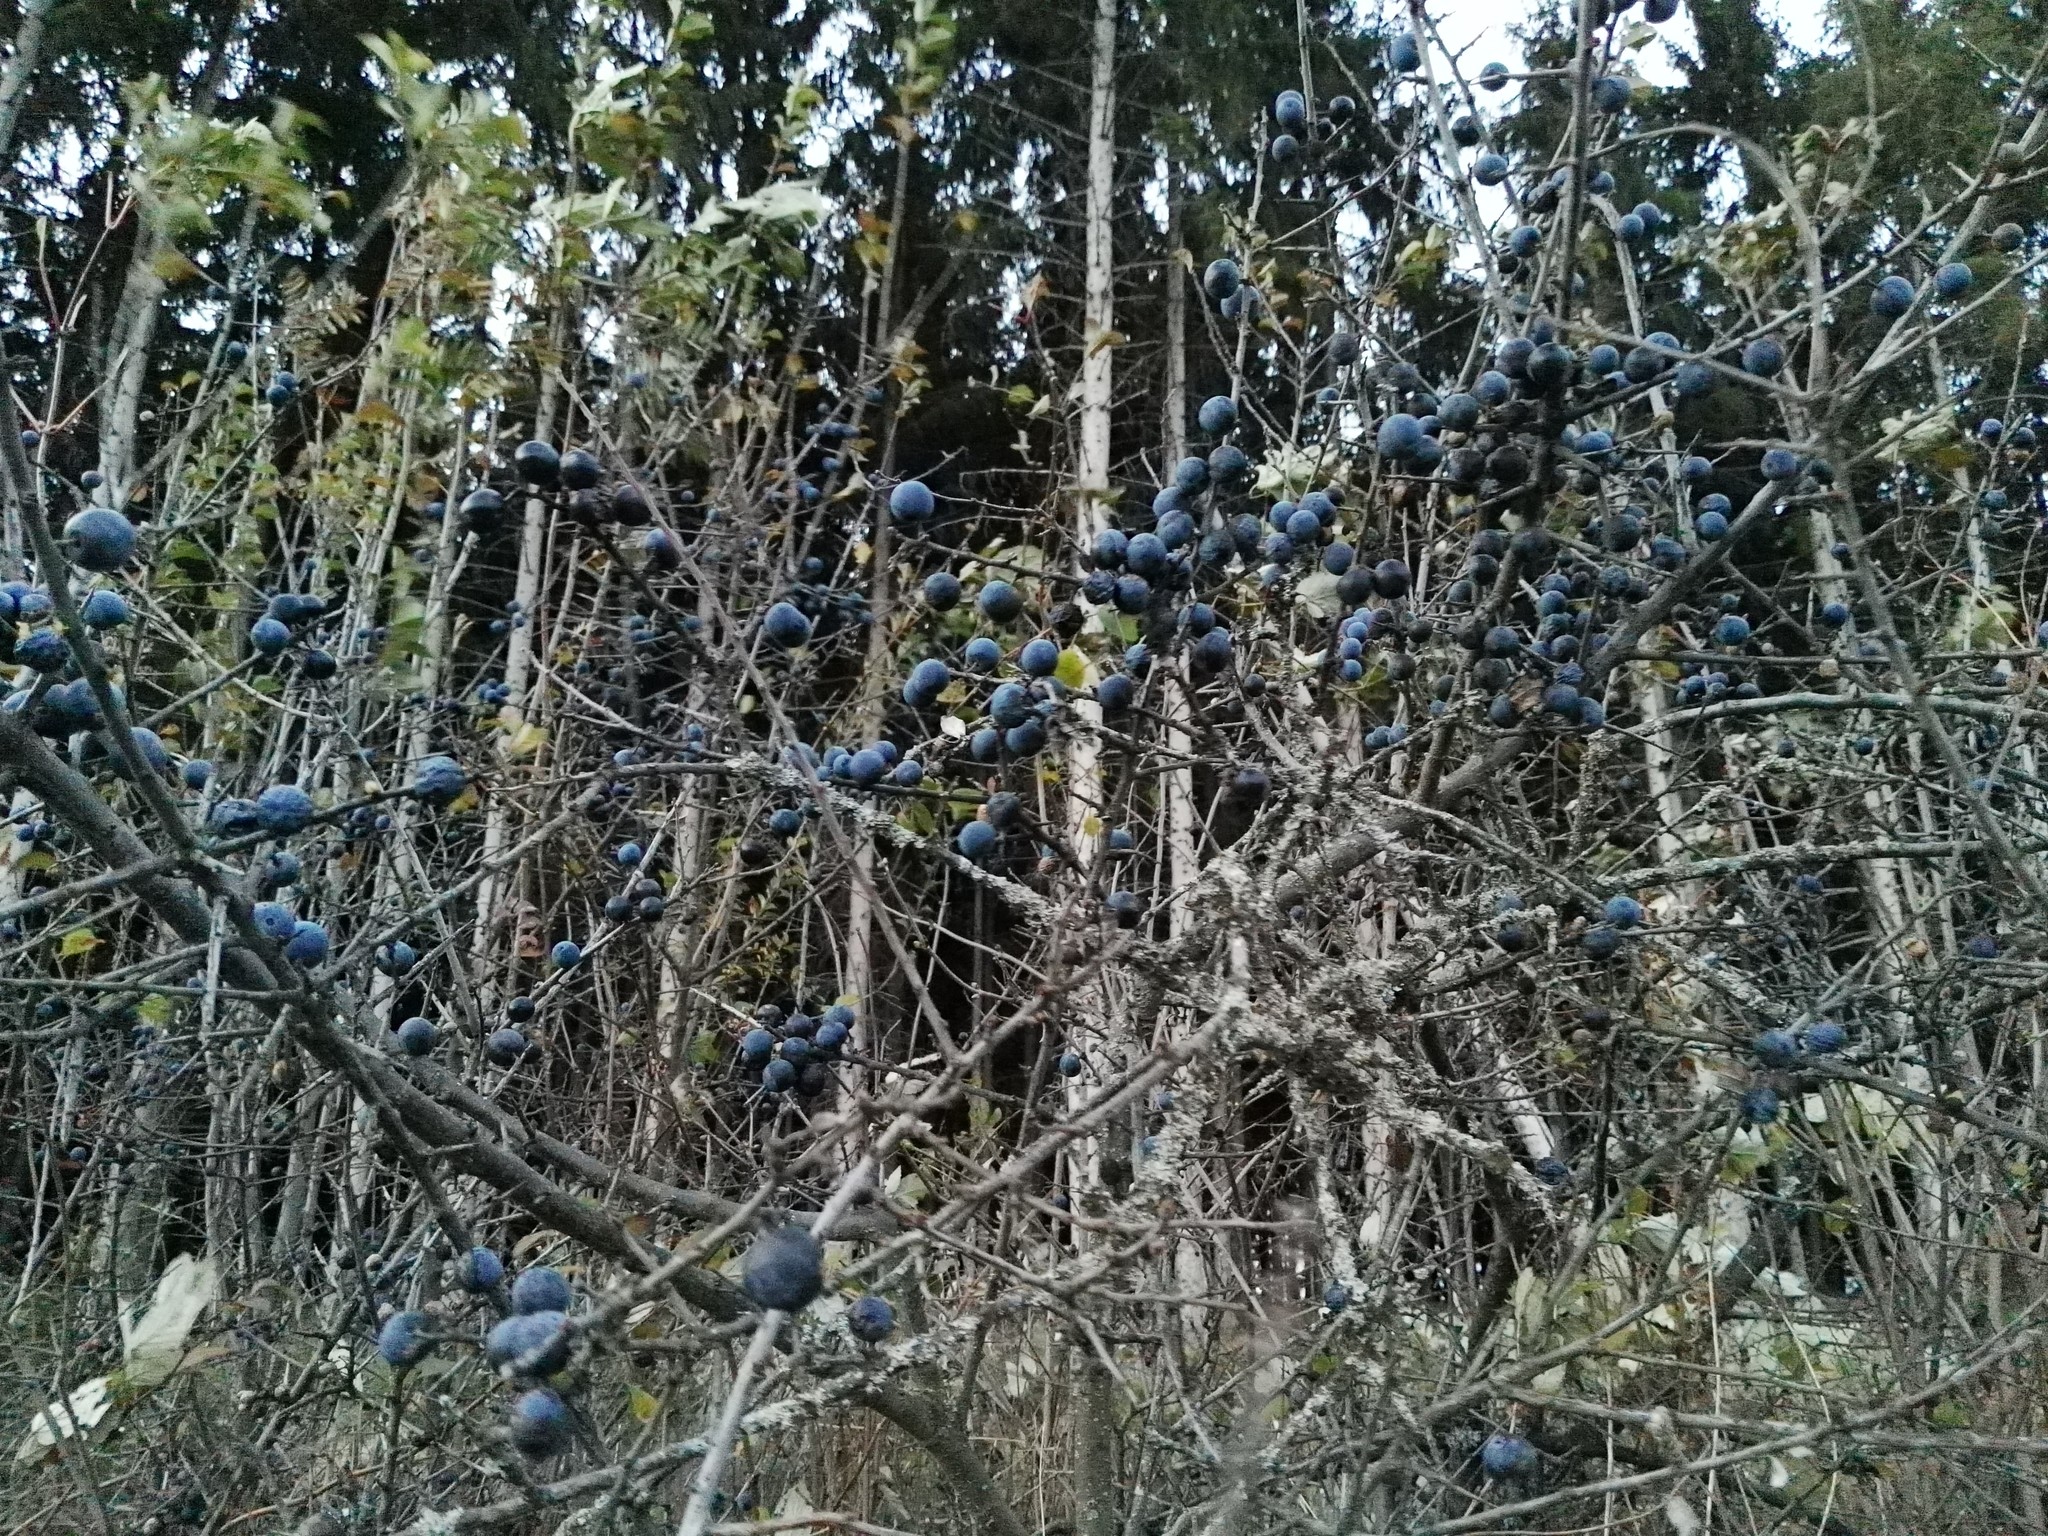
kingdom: Plantae
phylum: Tracheophyta
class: Magnoliopsida
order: Rosales
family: Rosaceae
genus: Prunus
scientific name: Prunus spinosa
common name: Blackthorn
